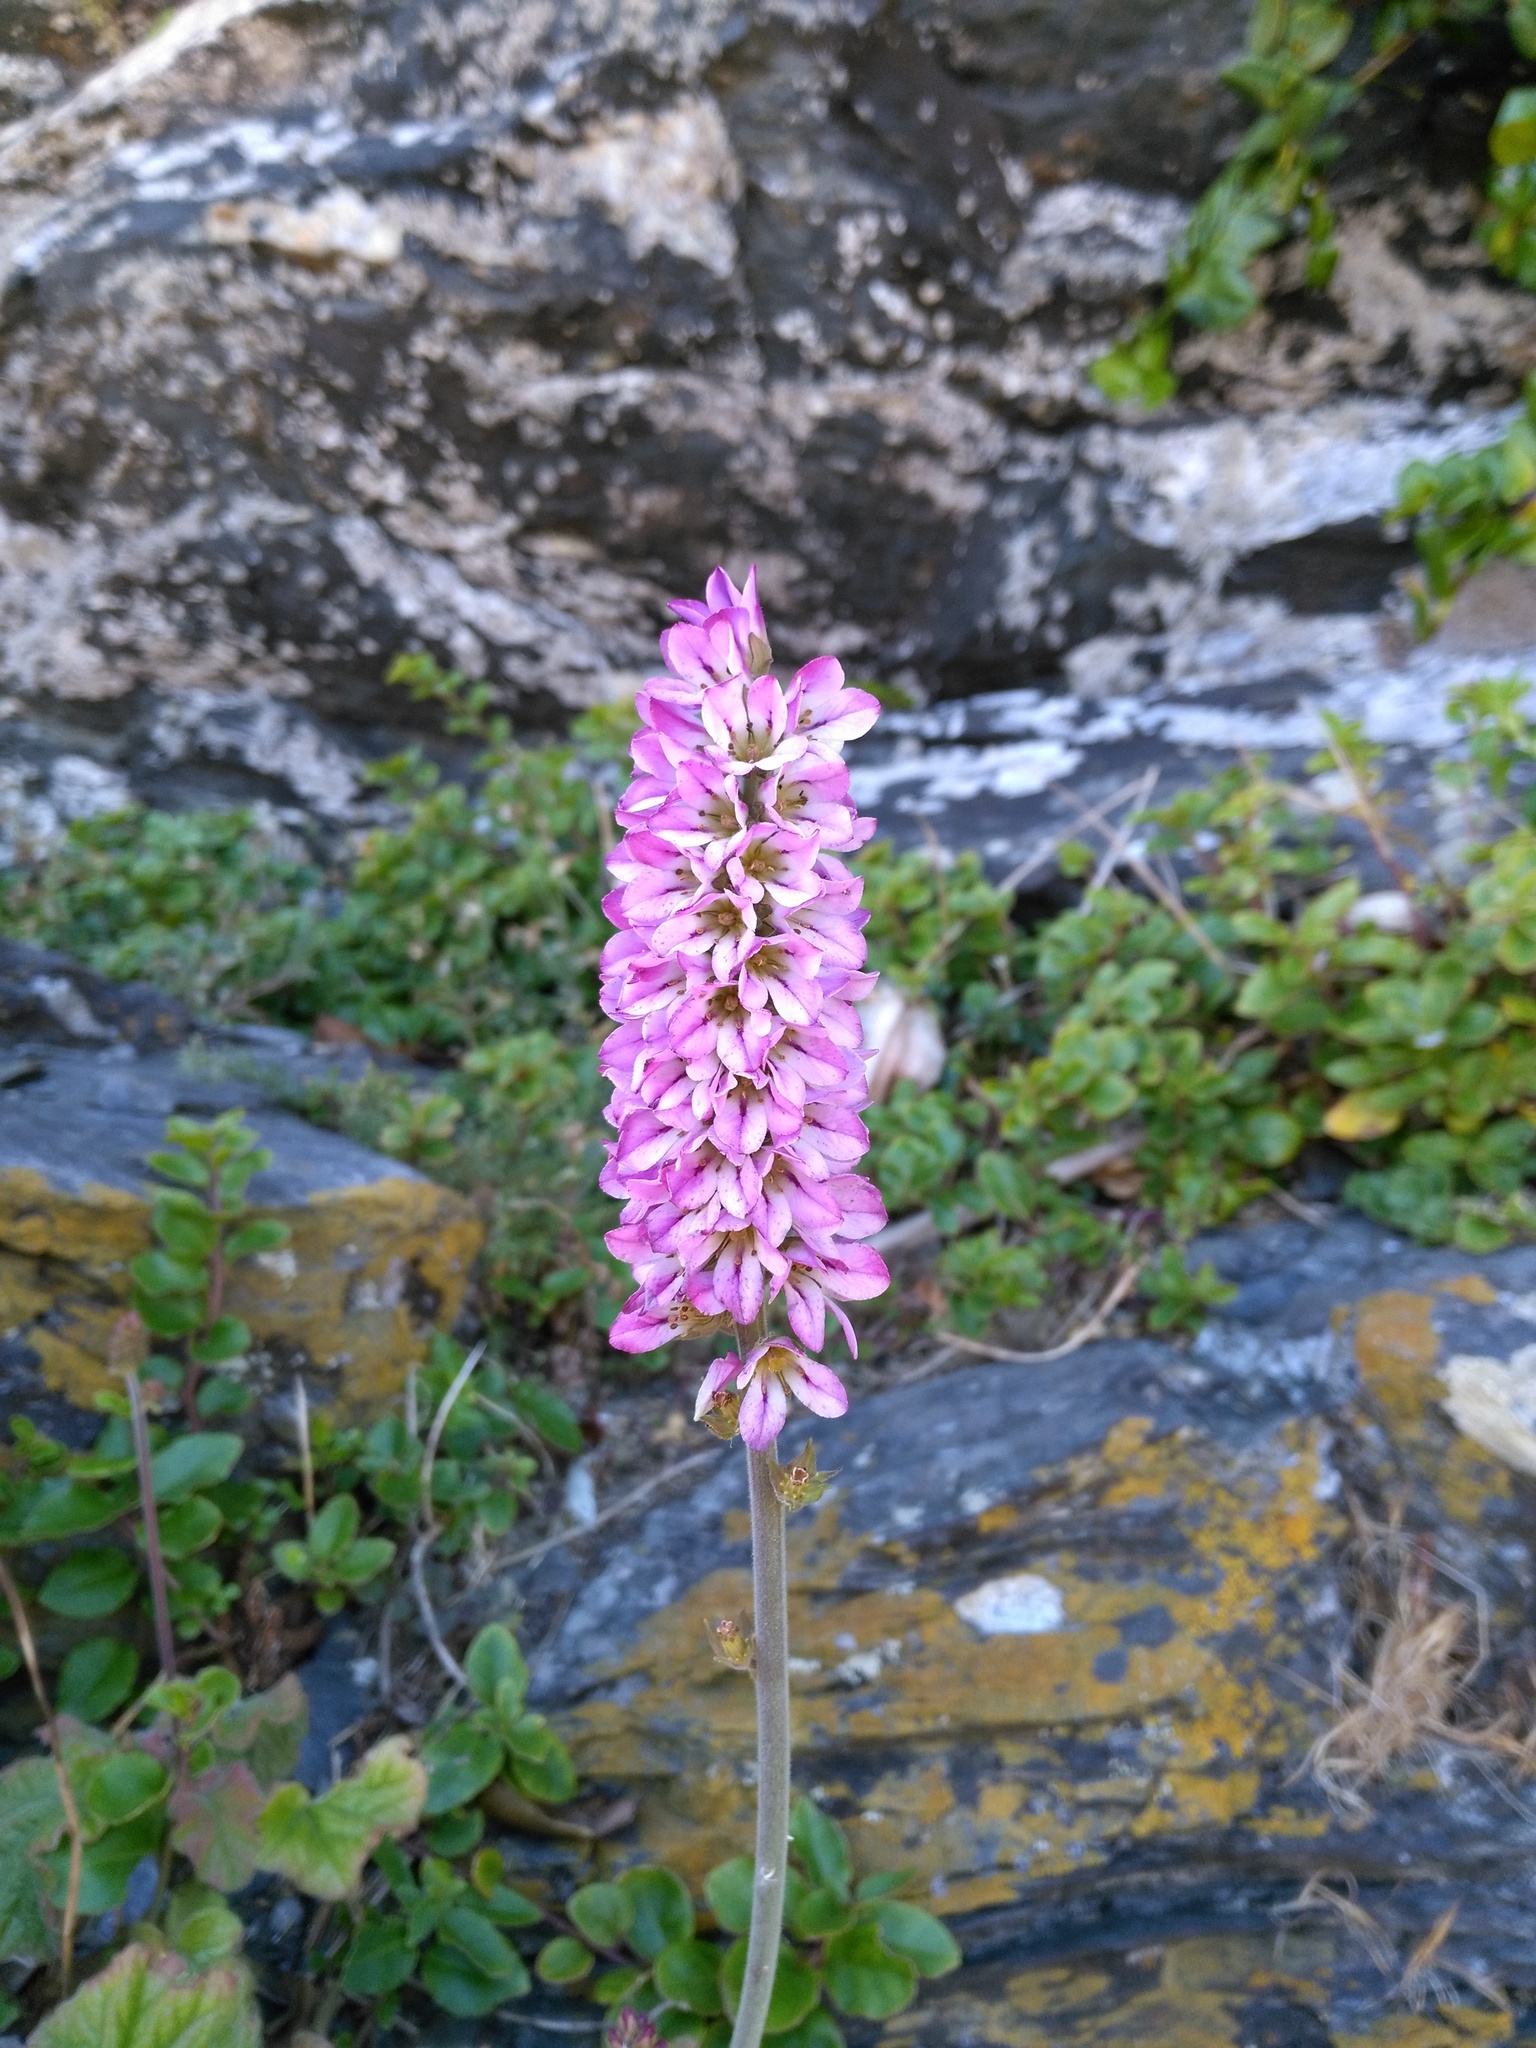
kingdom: Plantae
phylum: Tracheophyta
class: Magnoliopsida
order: Geraniales
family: Francoaceae
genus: Francoa
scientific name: Francoa appendiculata
